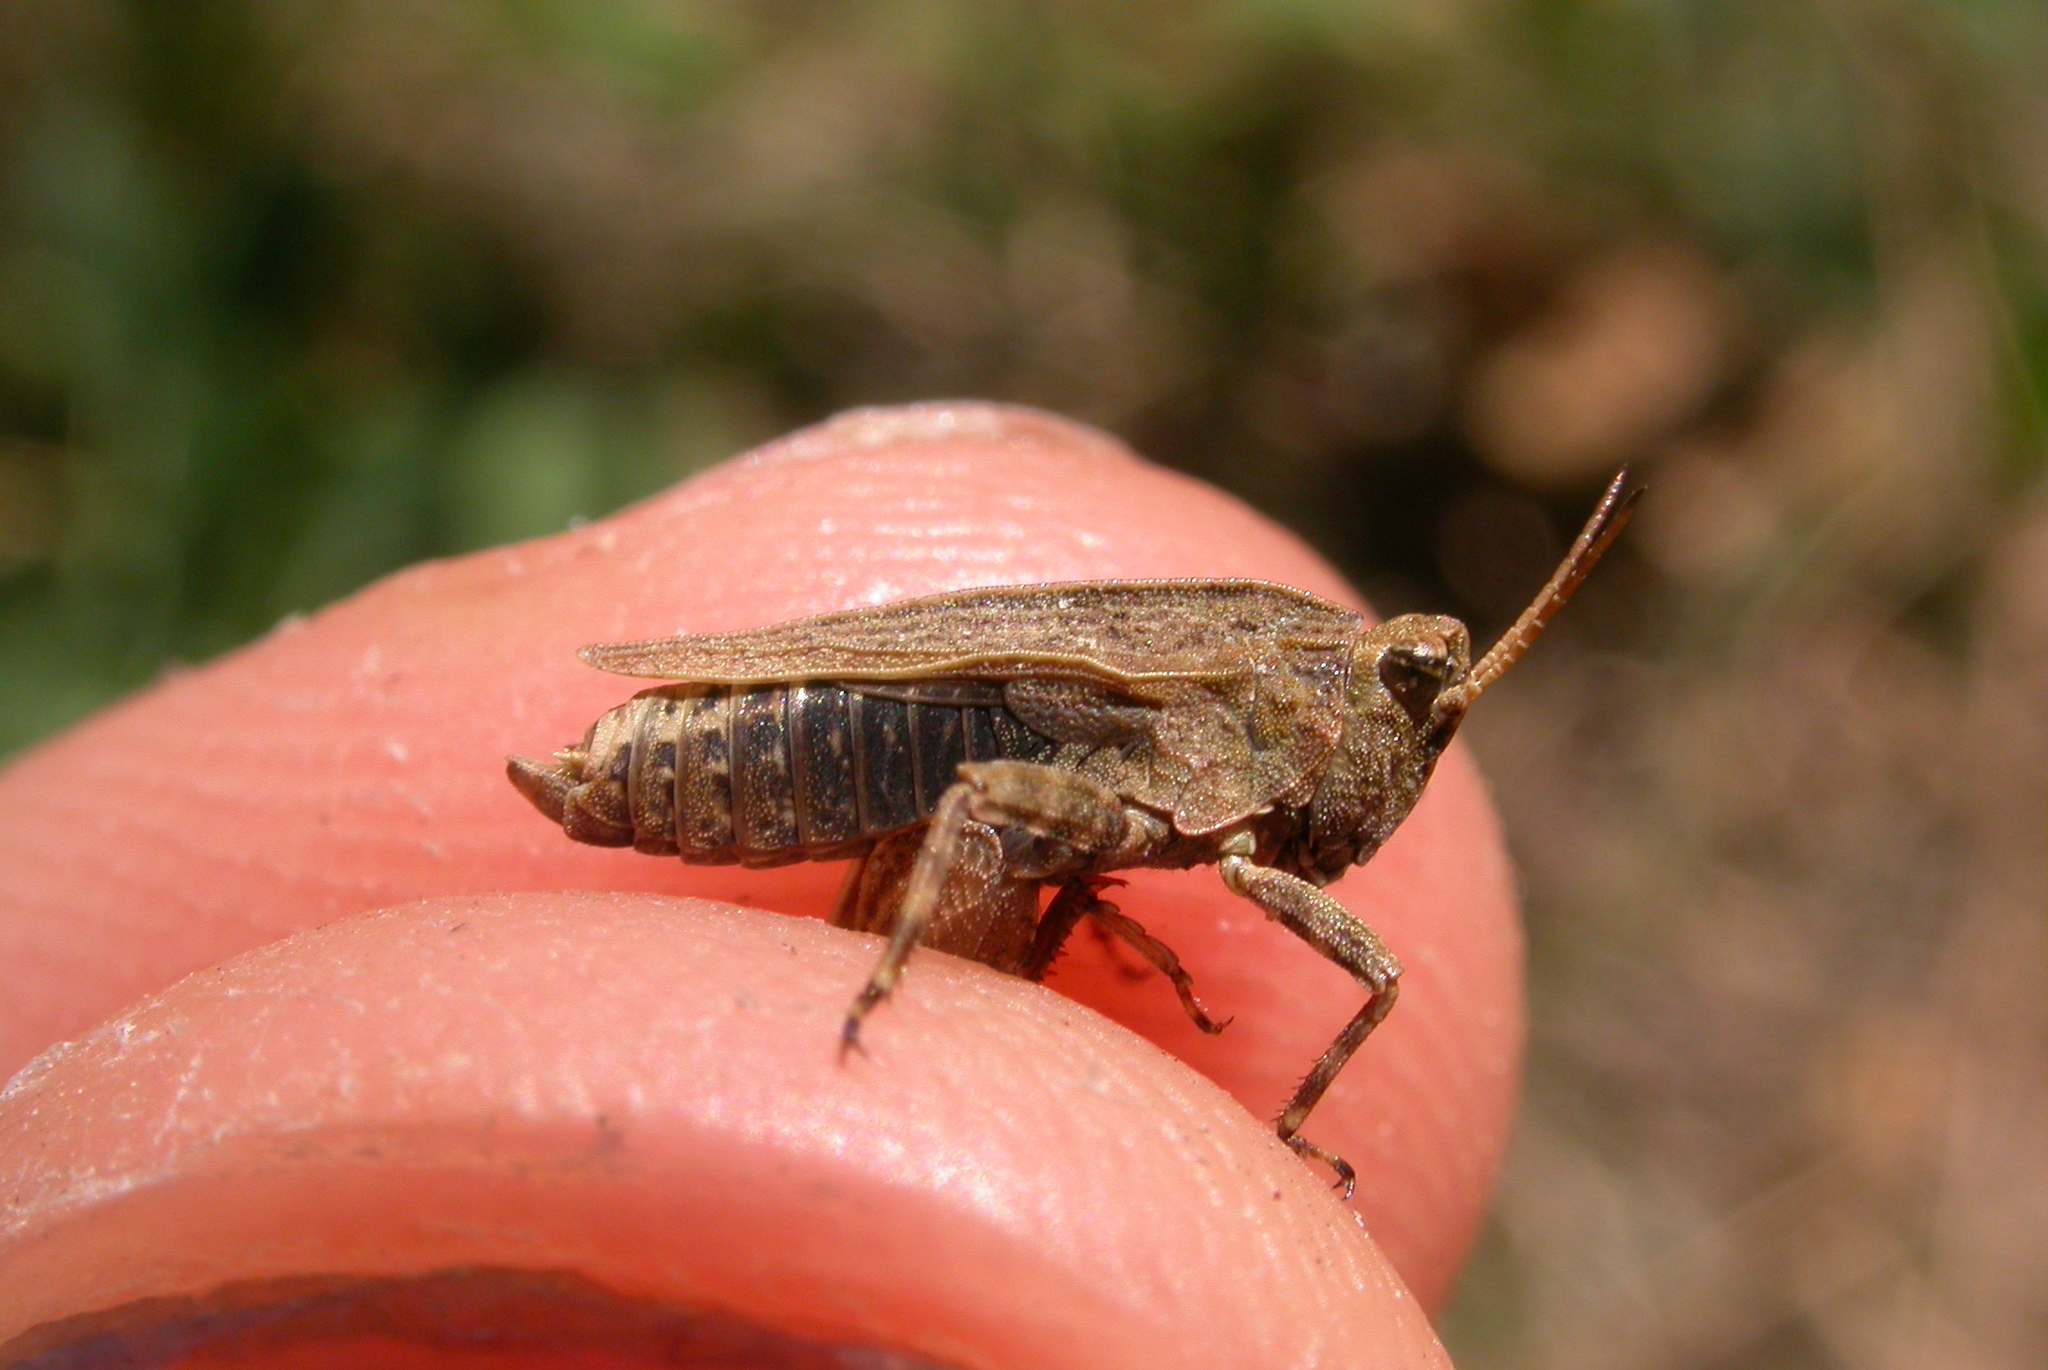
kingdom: Animalia
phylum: Arthropoda
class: Insecta
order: Orthoptera
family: Tetrigidae
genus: Tetrix
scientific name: Tetrix undulata
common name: Common groundhopper
